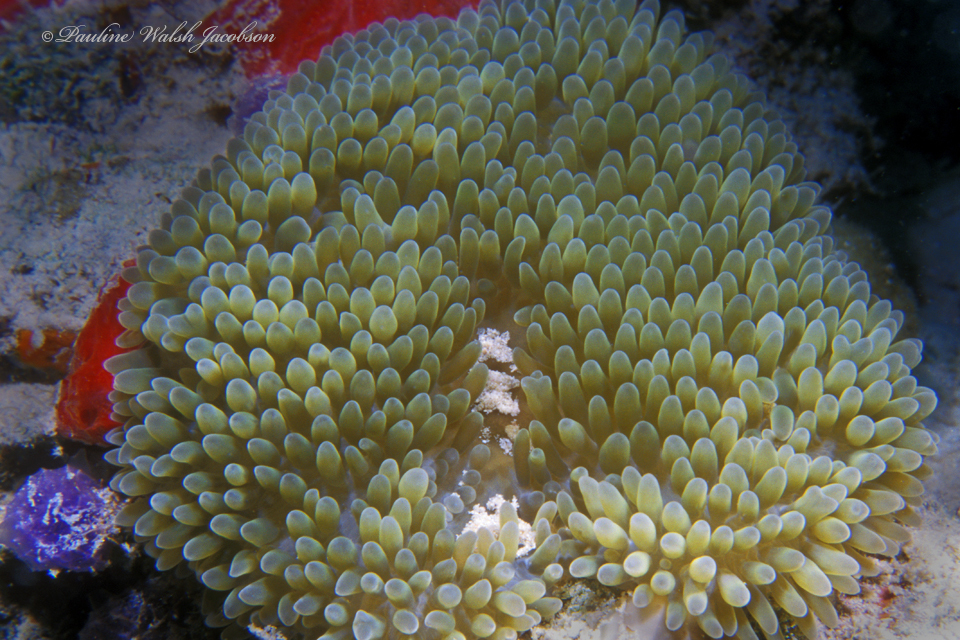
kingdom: Animalia
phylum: Cnidaria
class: Anthozoa
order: Actiniaria
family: Stichodactylidae
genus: Stichodactyla
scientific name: Stichodactyla helianthus
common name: Sun anemone
